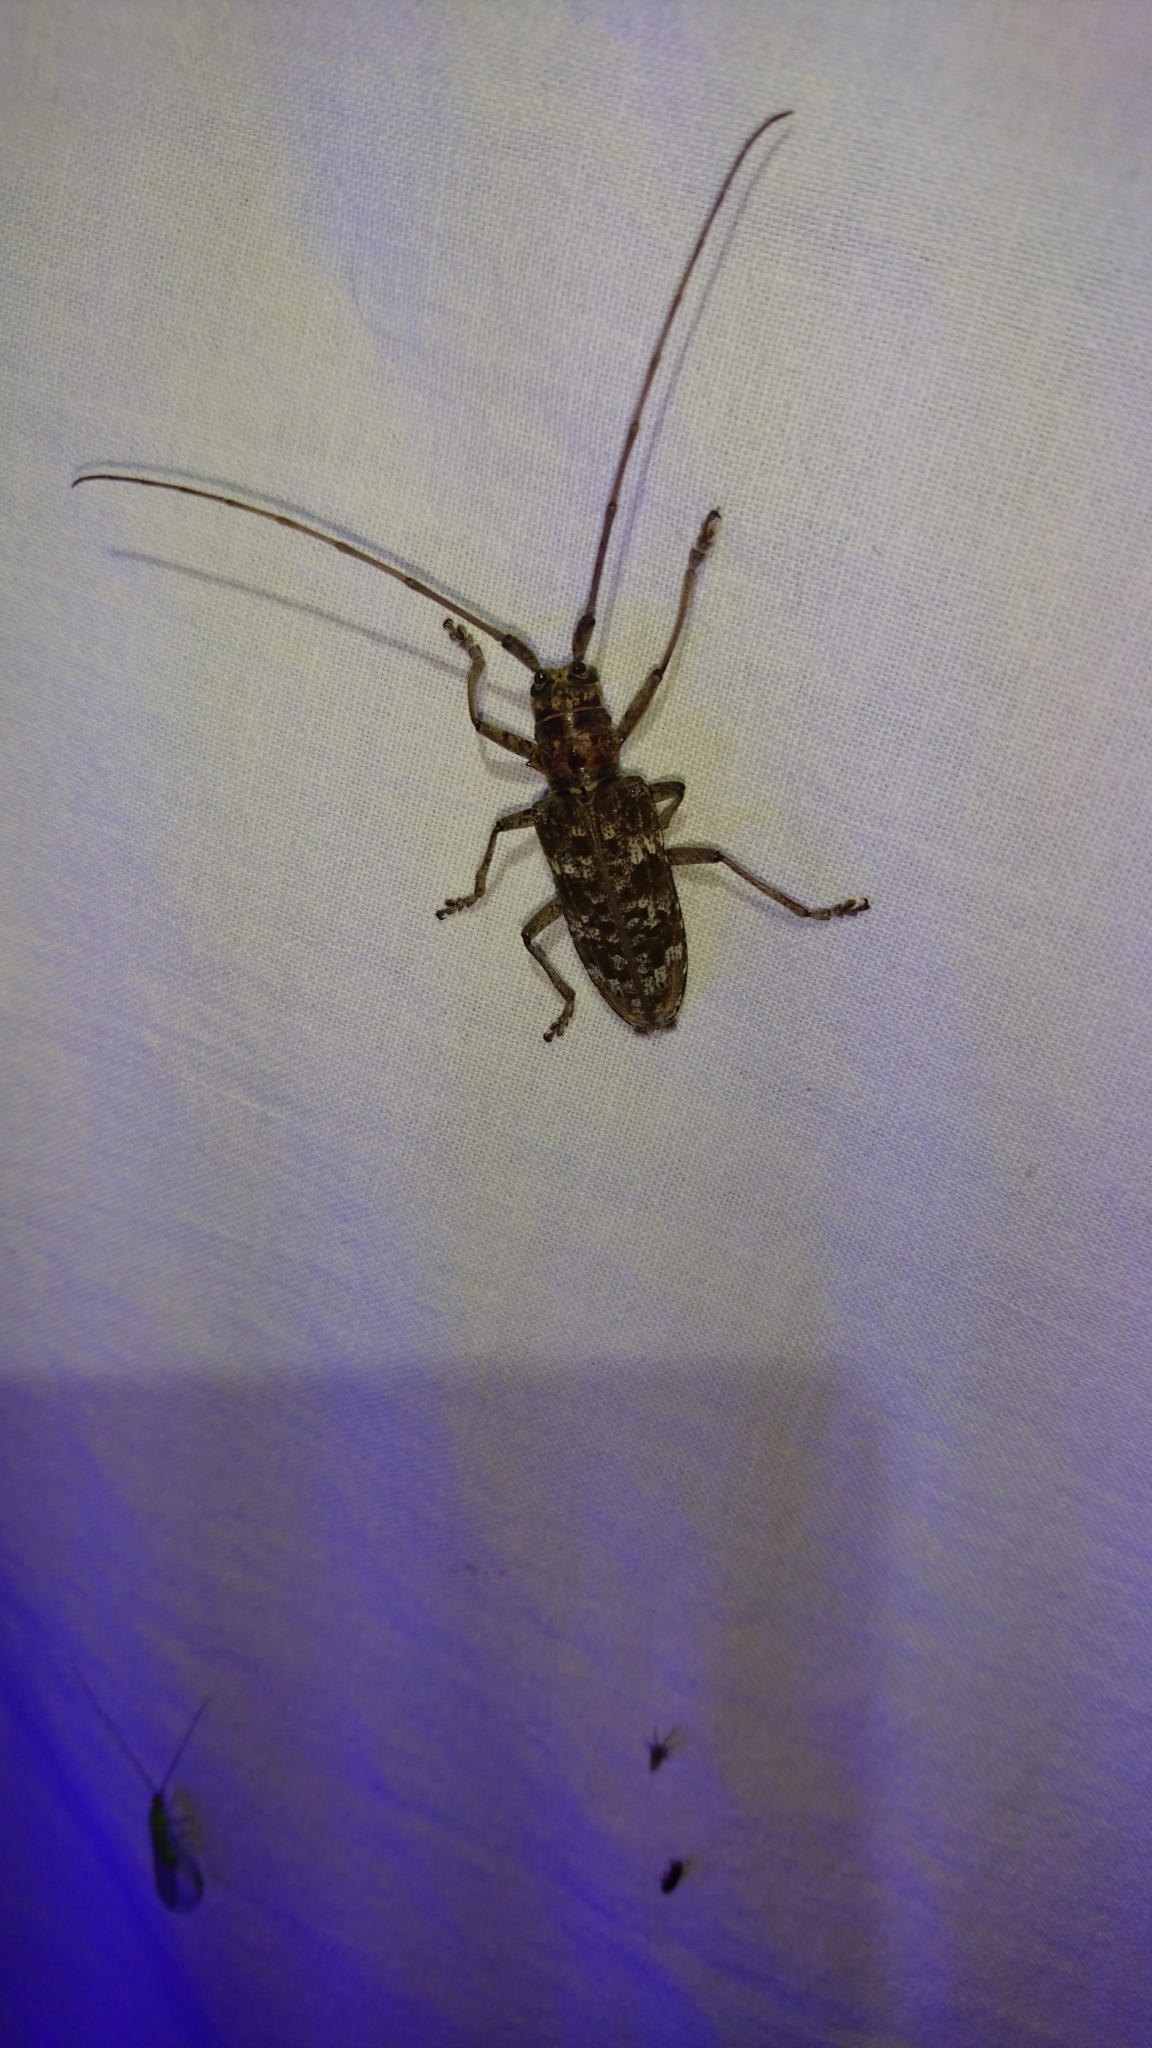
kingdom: Animalia
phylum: Arthropoda
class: Insecta
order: Coleoptera
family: Cerambycidae
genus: Monochamus
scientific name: Monochamus carolinensis
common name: Carolina pine sawyer
